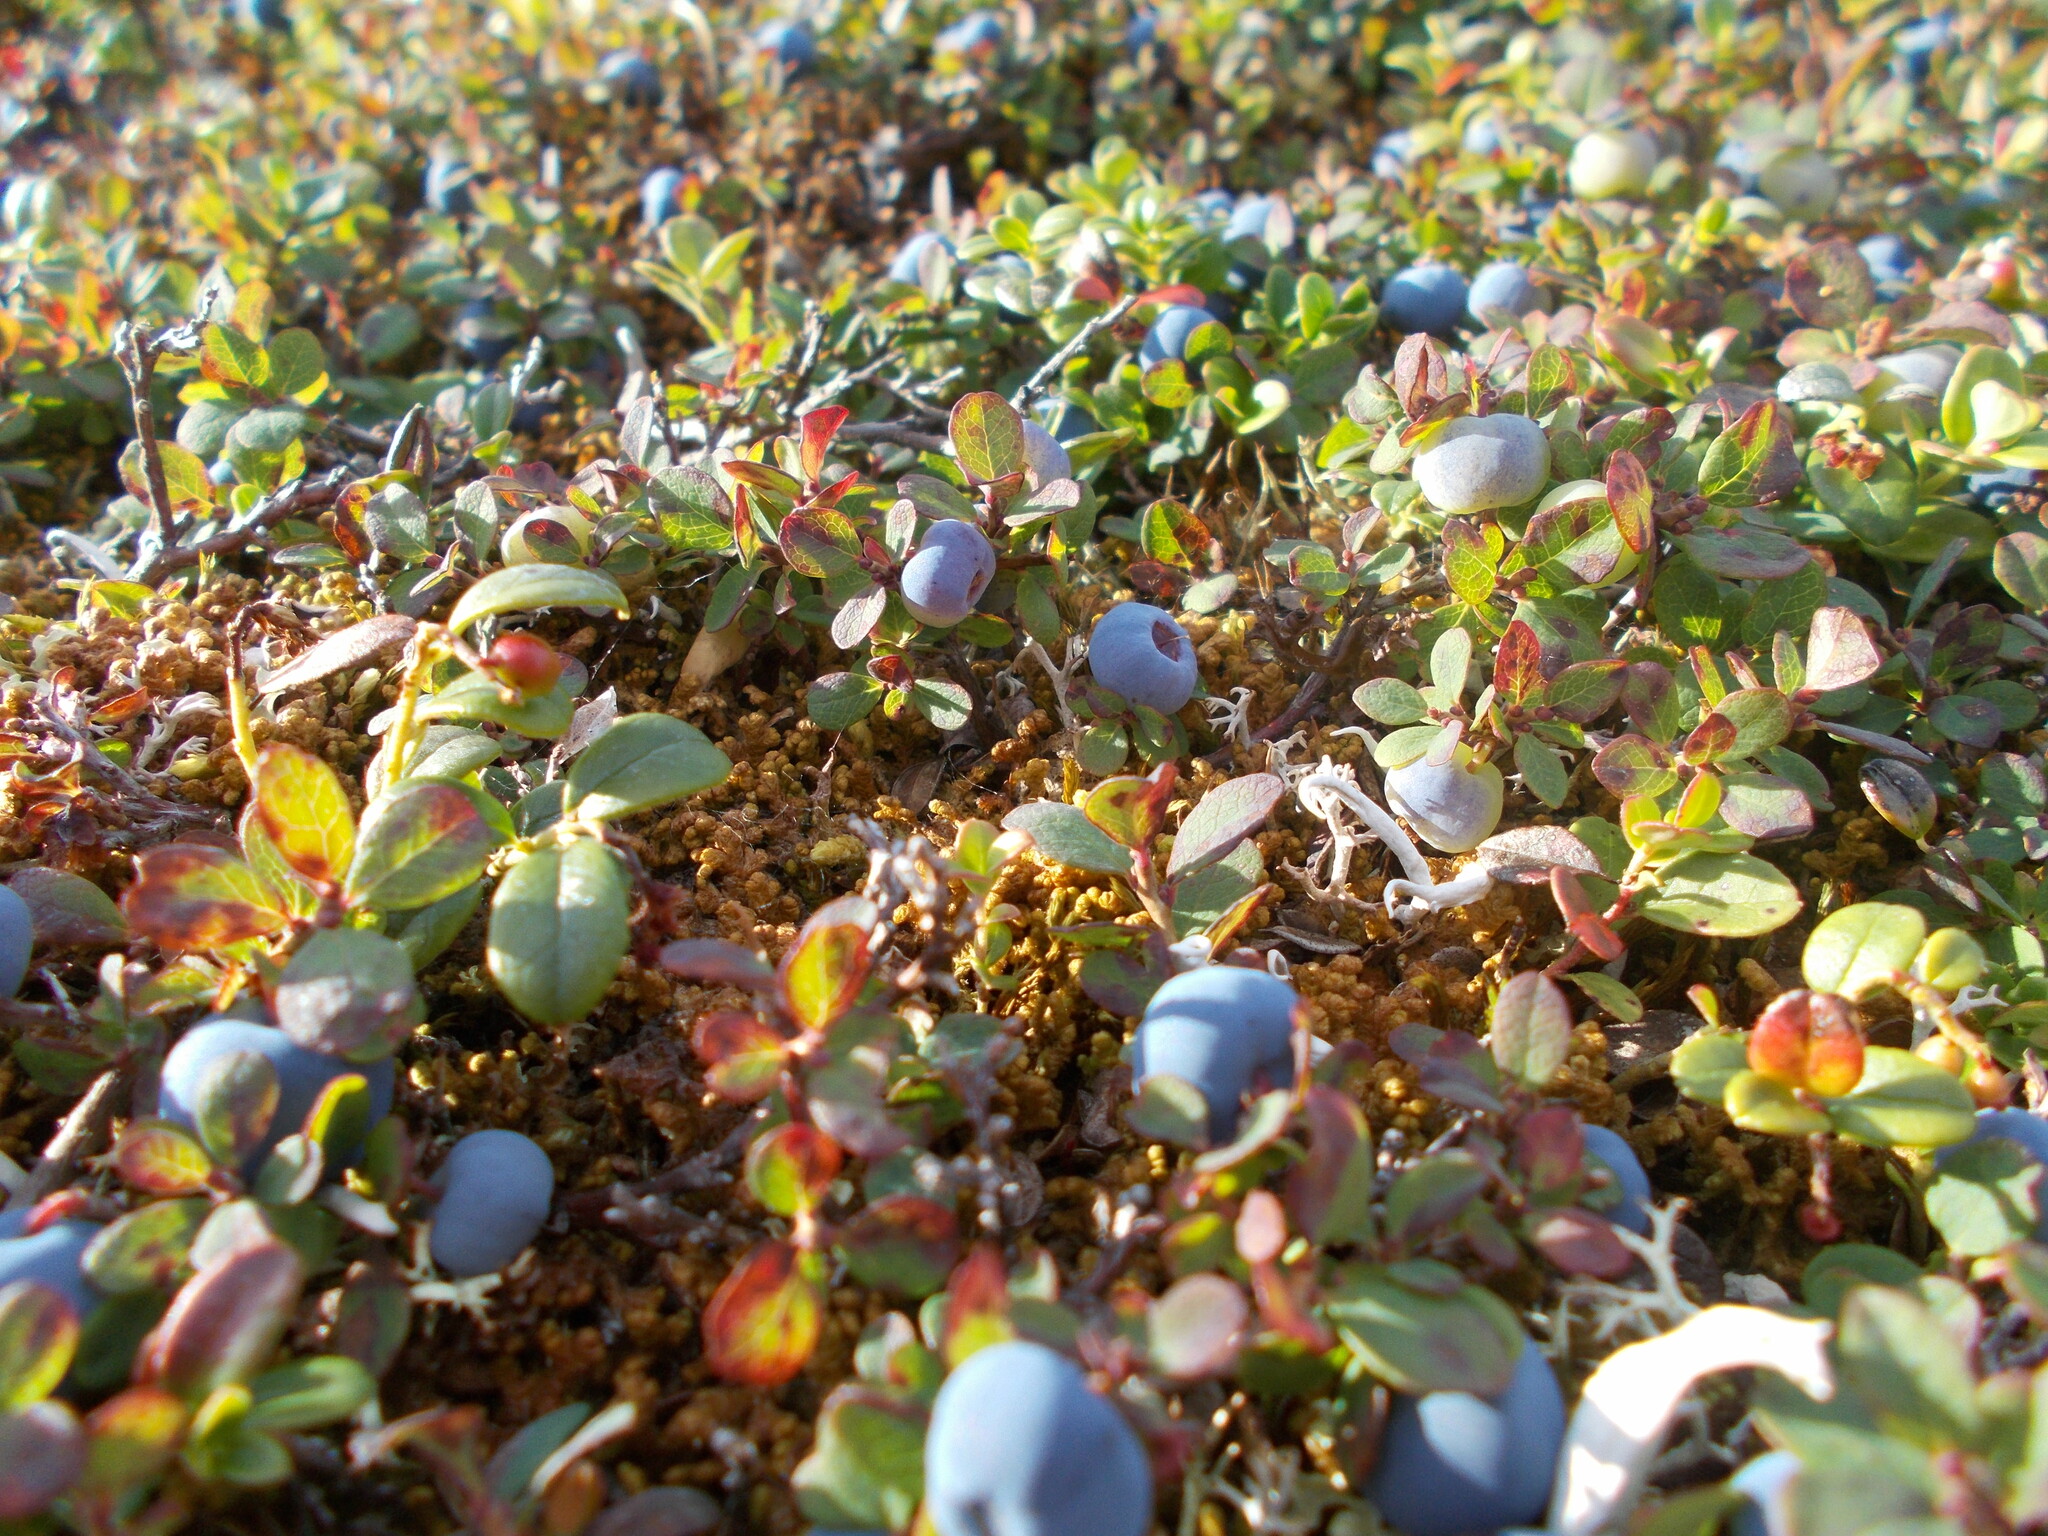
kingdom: Plantae
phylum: Tracheophyta
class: Magnoliopsida
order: Ericales
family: Ericaceae
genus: Vaccinium
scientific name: Vaccinium uliginosum
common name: Bog bilberry
